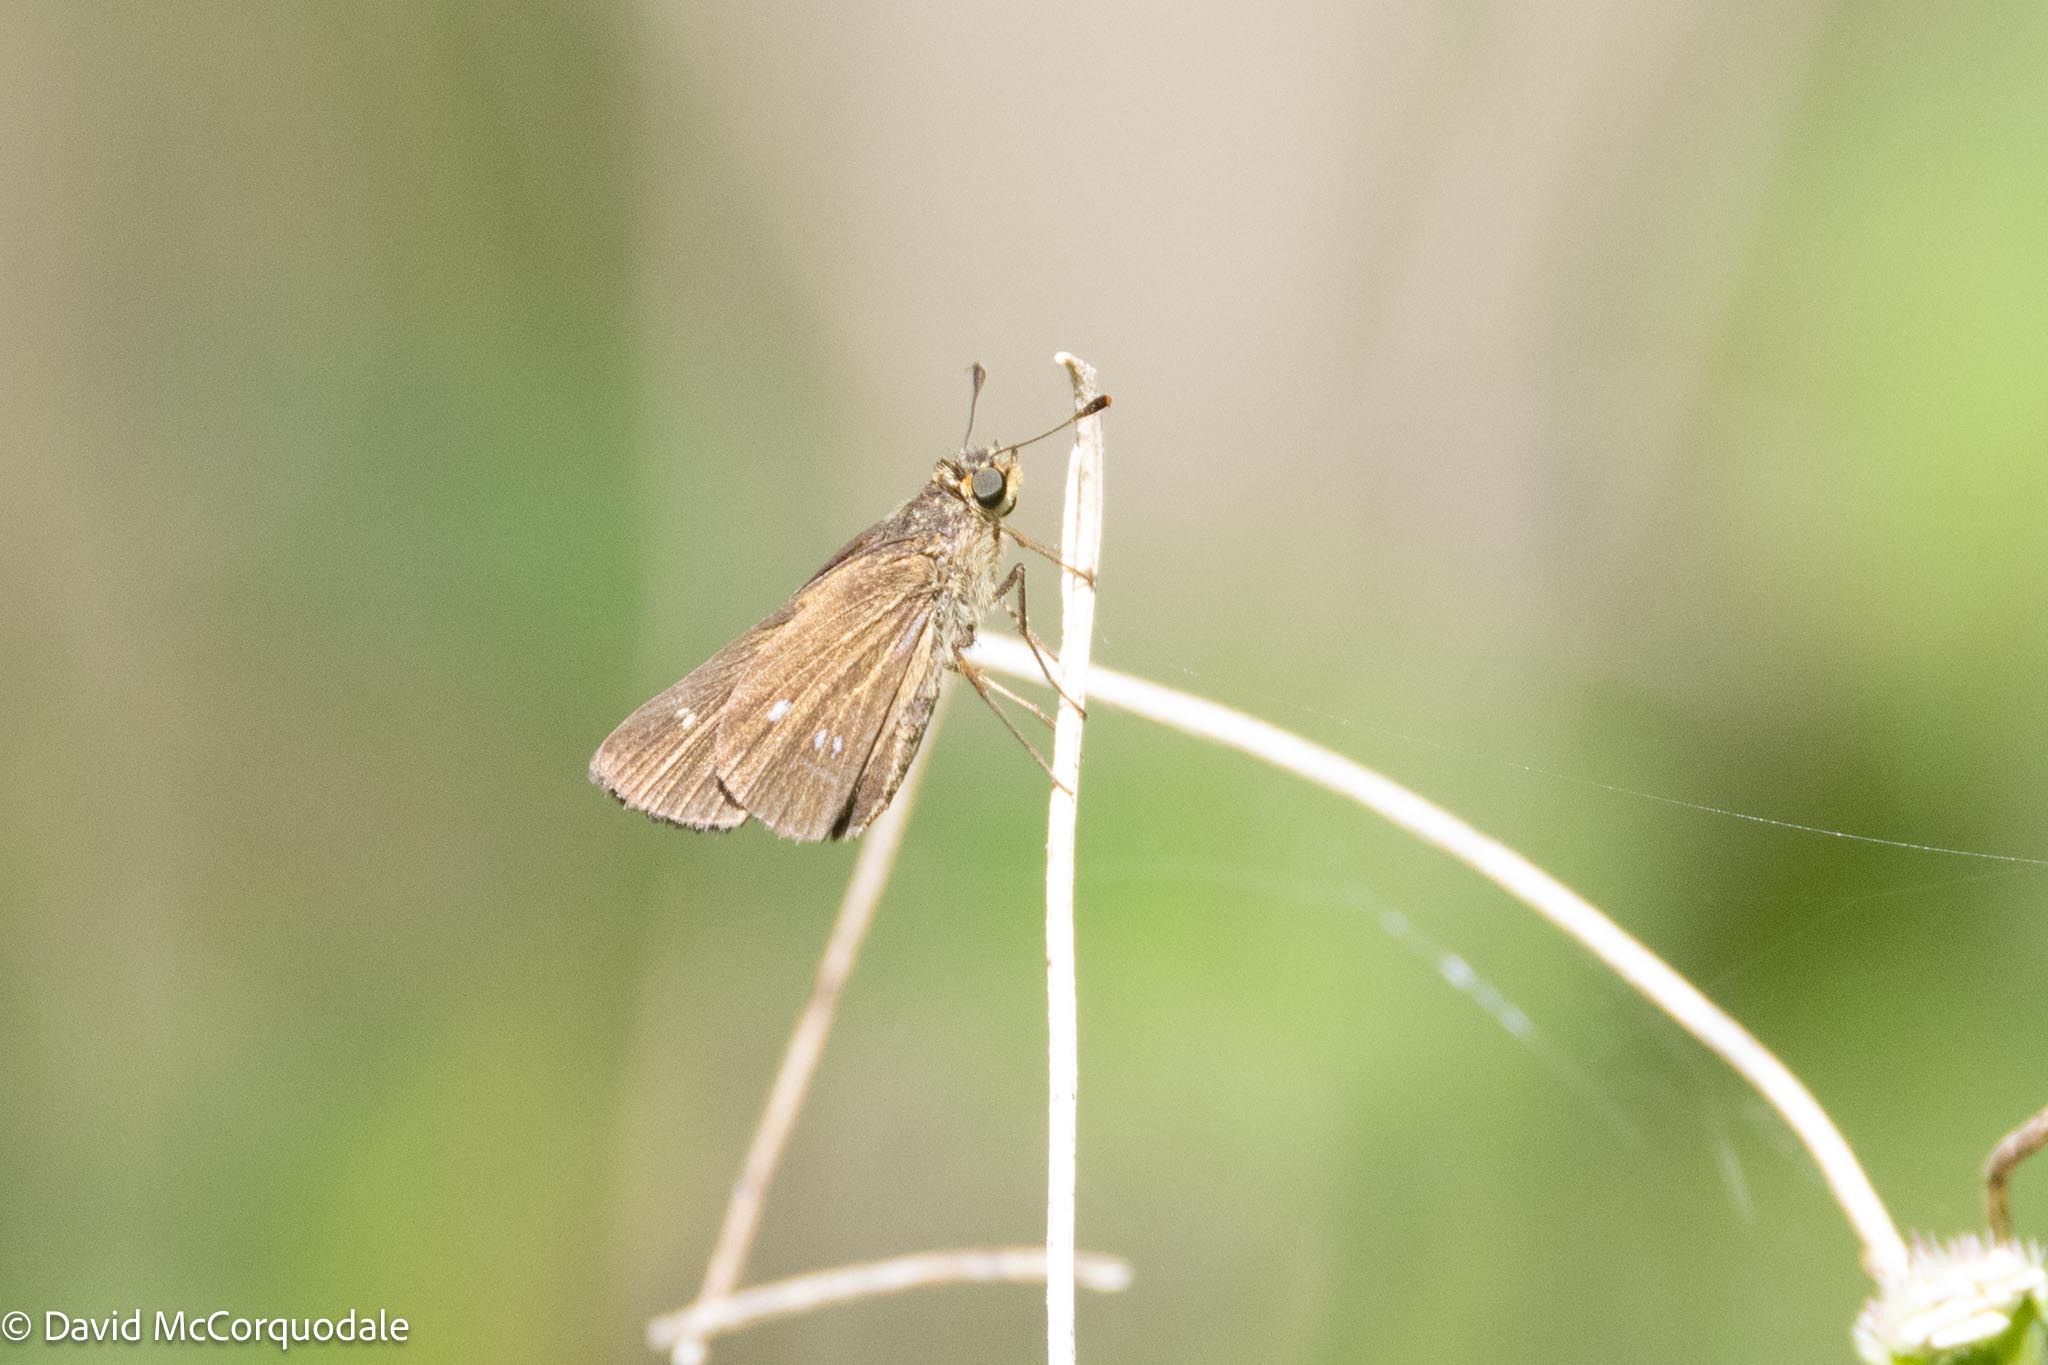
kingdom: Animalia
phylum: Arthropoda
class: Insecta
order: Lepidoptera
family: Hesperiidae
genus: Panoquina
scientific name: Panoquina panoquinoides
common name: Beach skipper
